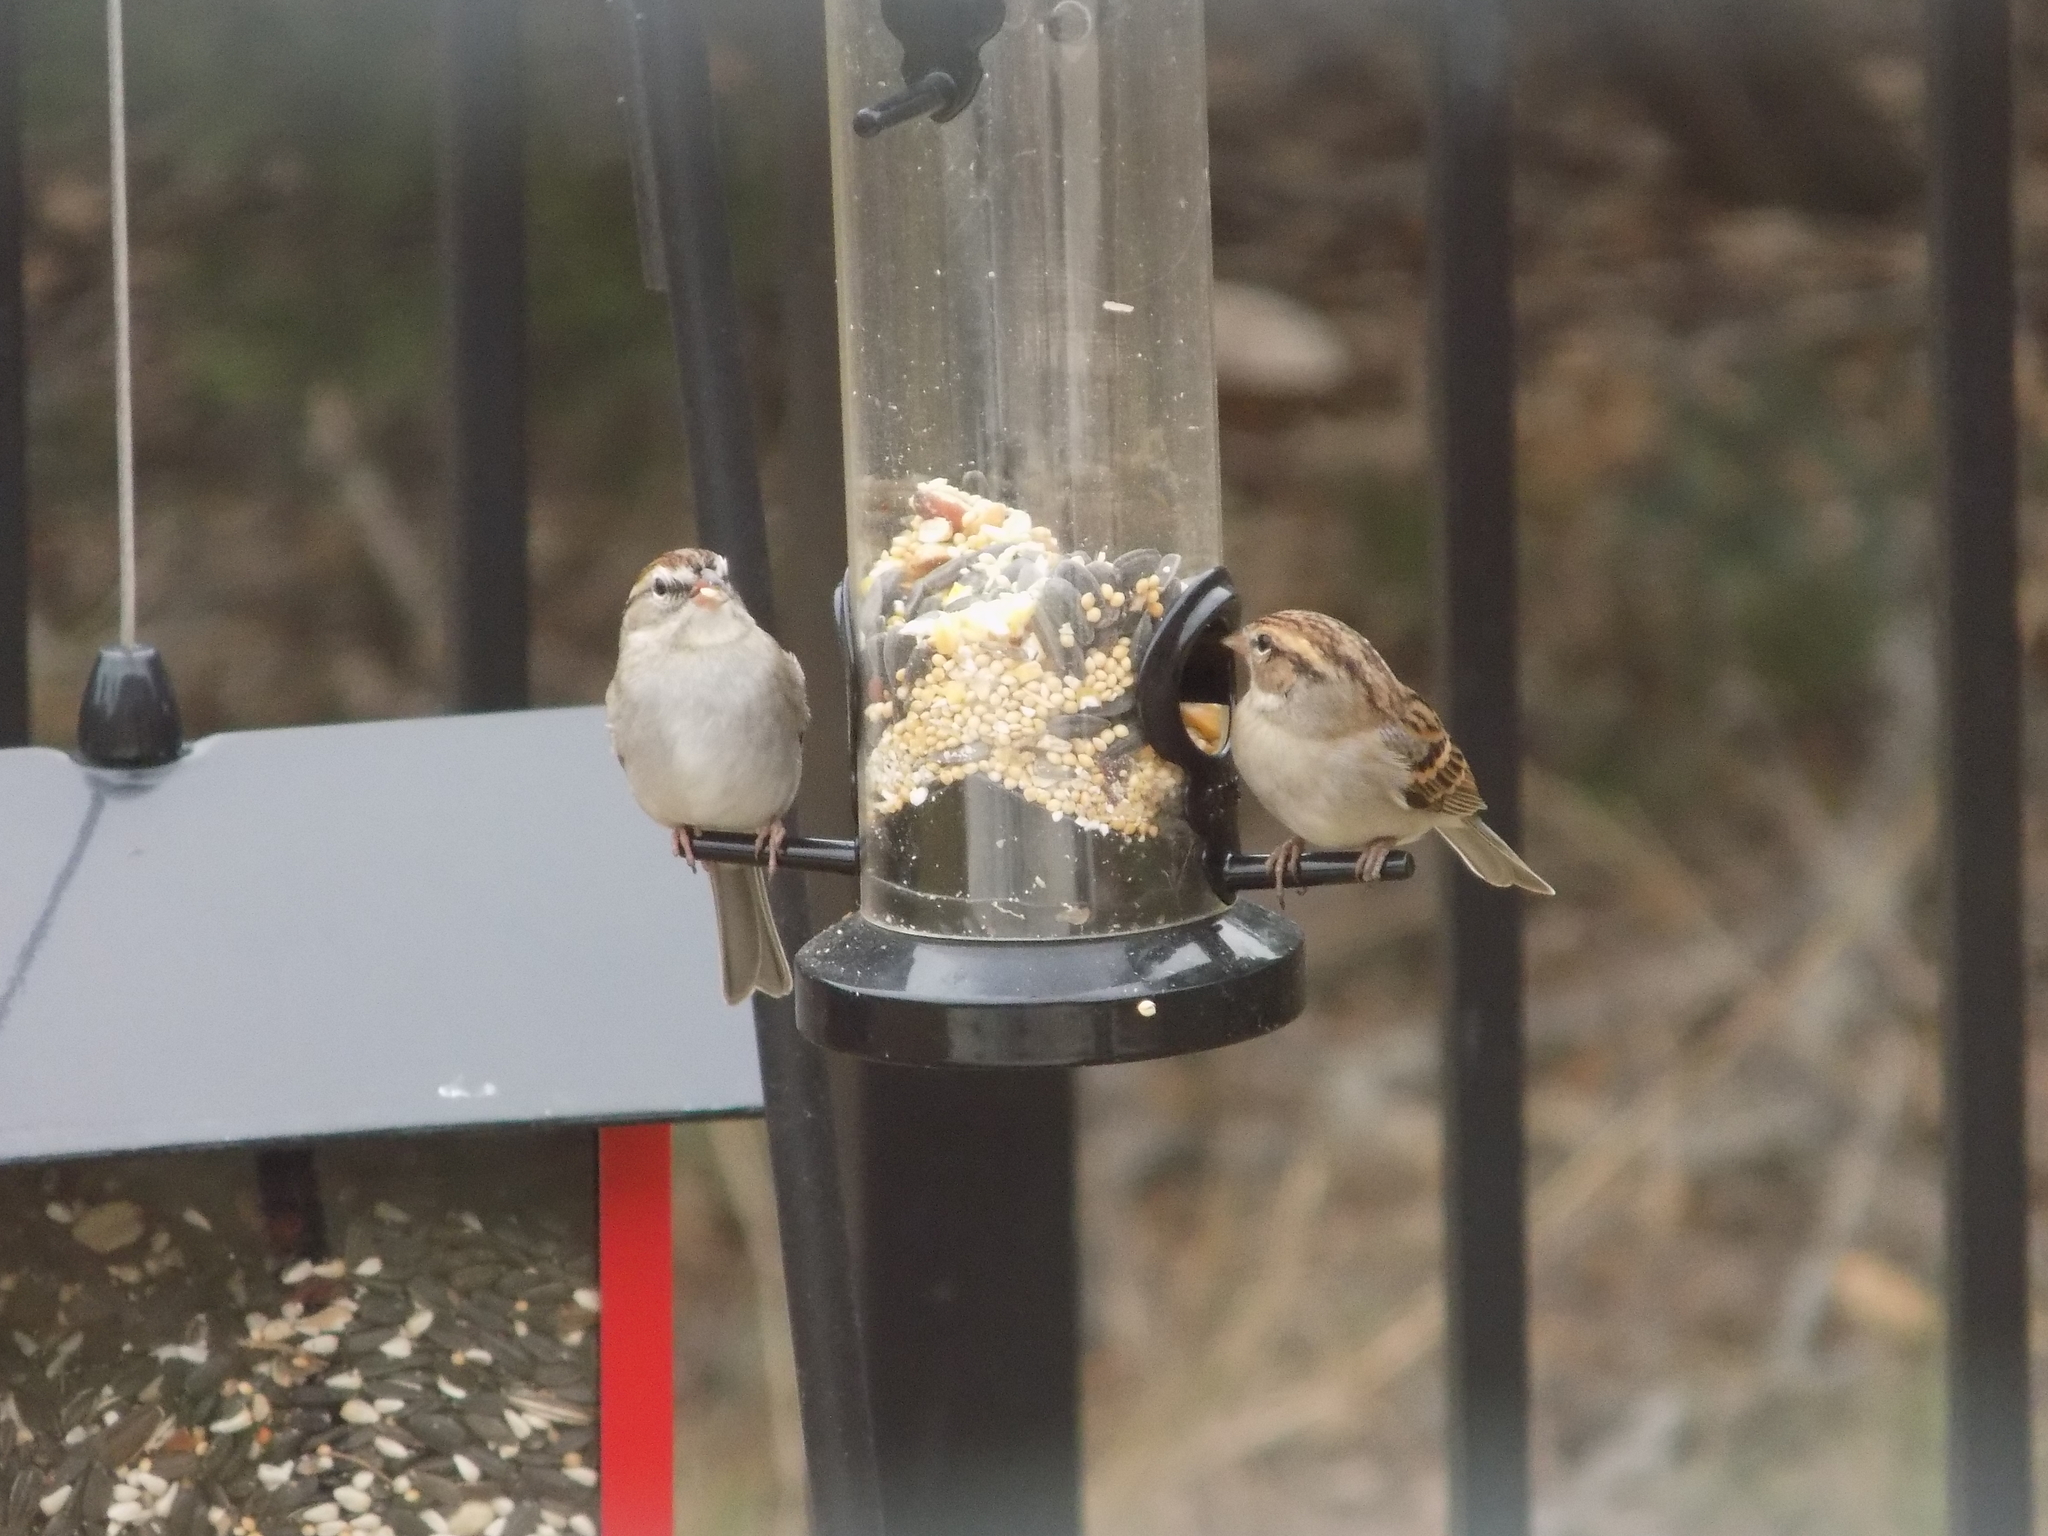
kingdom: Animalia
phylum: Chordata
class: Aves
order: Passeriformes
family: Passerellidae
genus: Spizella
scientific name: Spizella passerina
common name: Chipping sparrow
